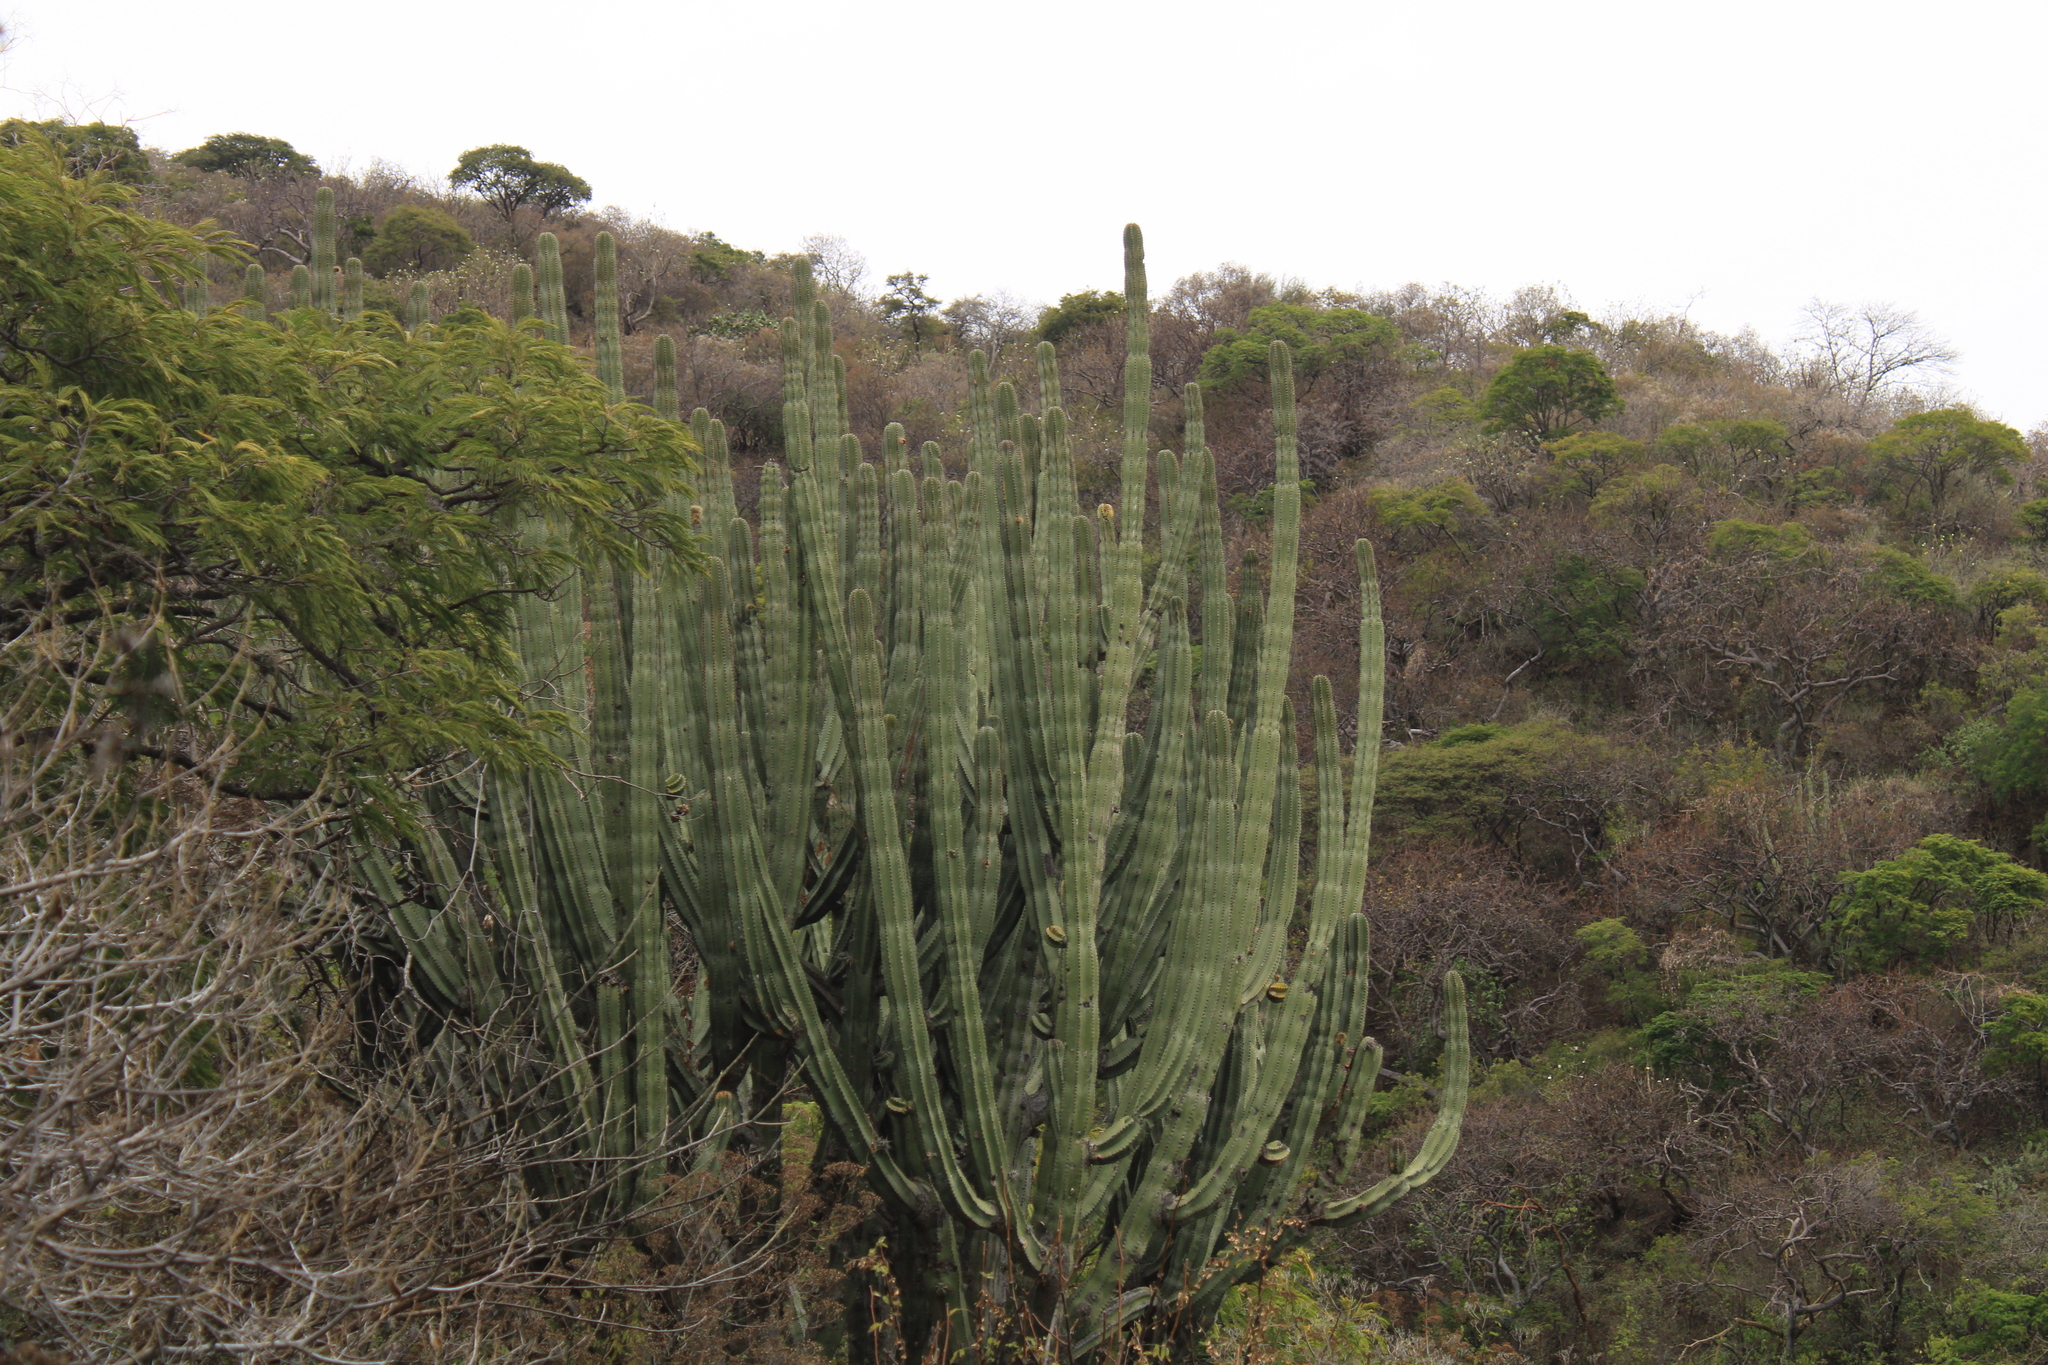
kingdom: Plantae
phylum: Tracheophyta
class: Magnoliopsida
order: Caryophyllales
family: Cactaceae
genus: Stenocereus
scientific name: Stenocereus queretaroensis
